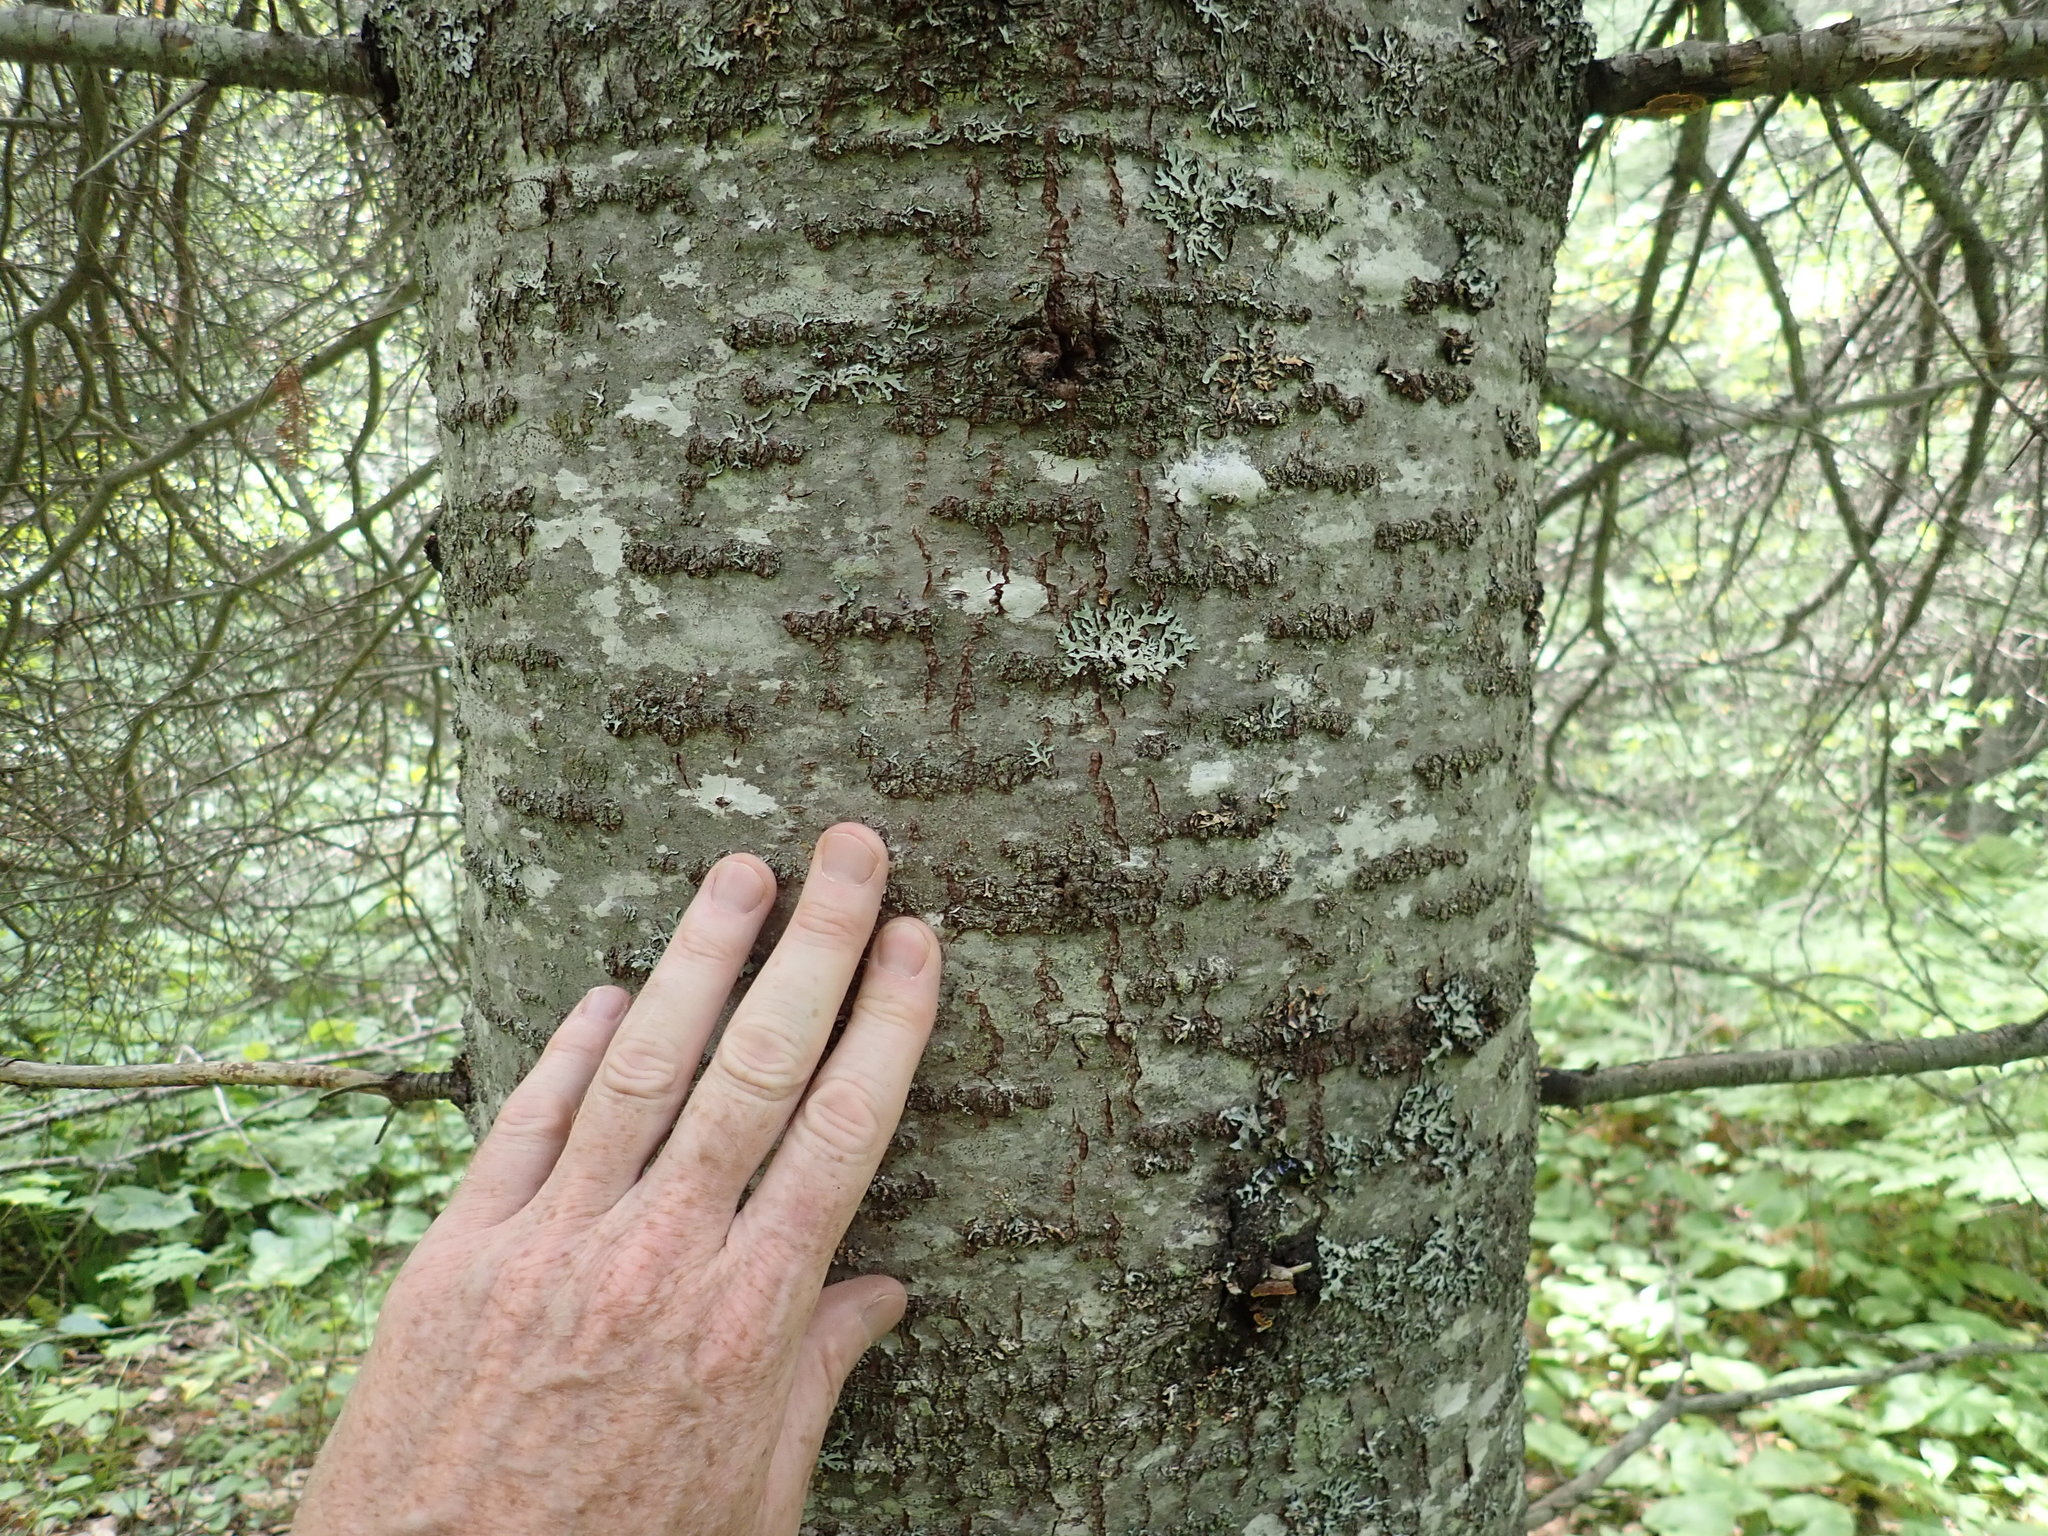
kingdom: Plantae
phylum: Tracheophyta
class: Pinopsida
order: Pinales
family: Pinaceae
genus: Abies
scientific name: Abies balsamea
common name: Balsam fir
